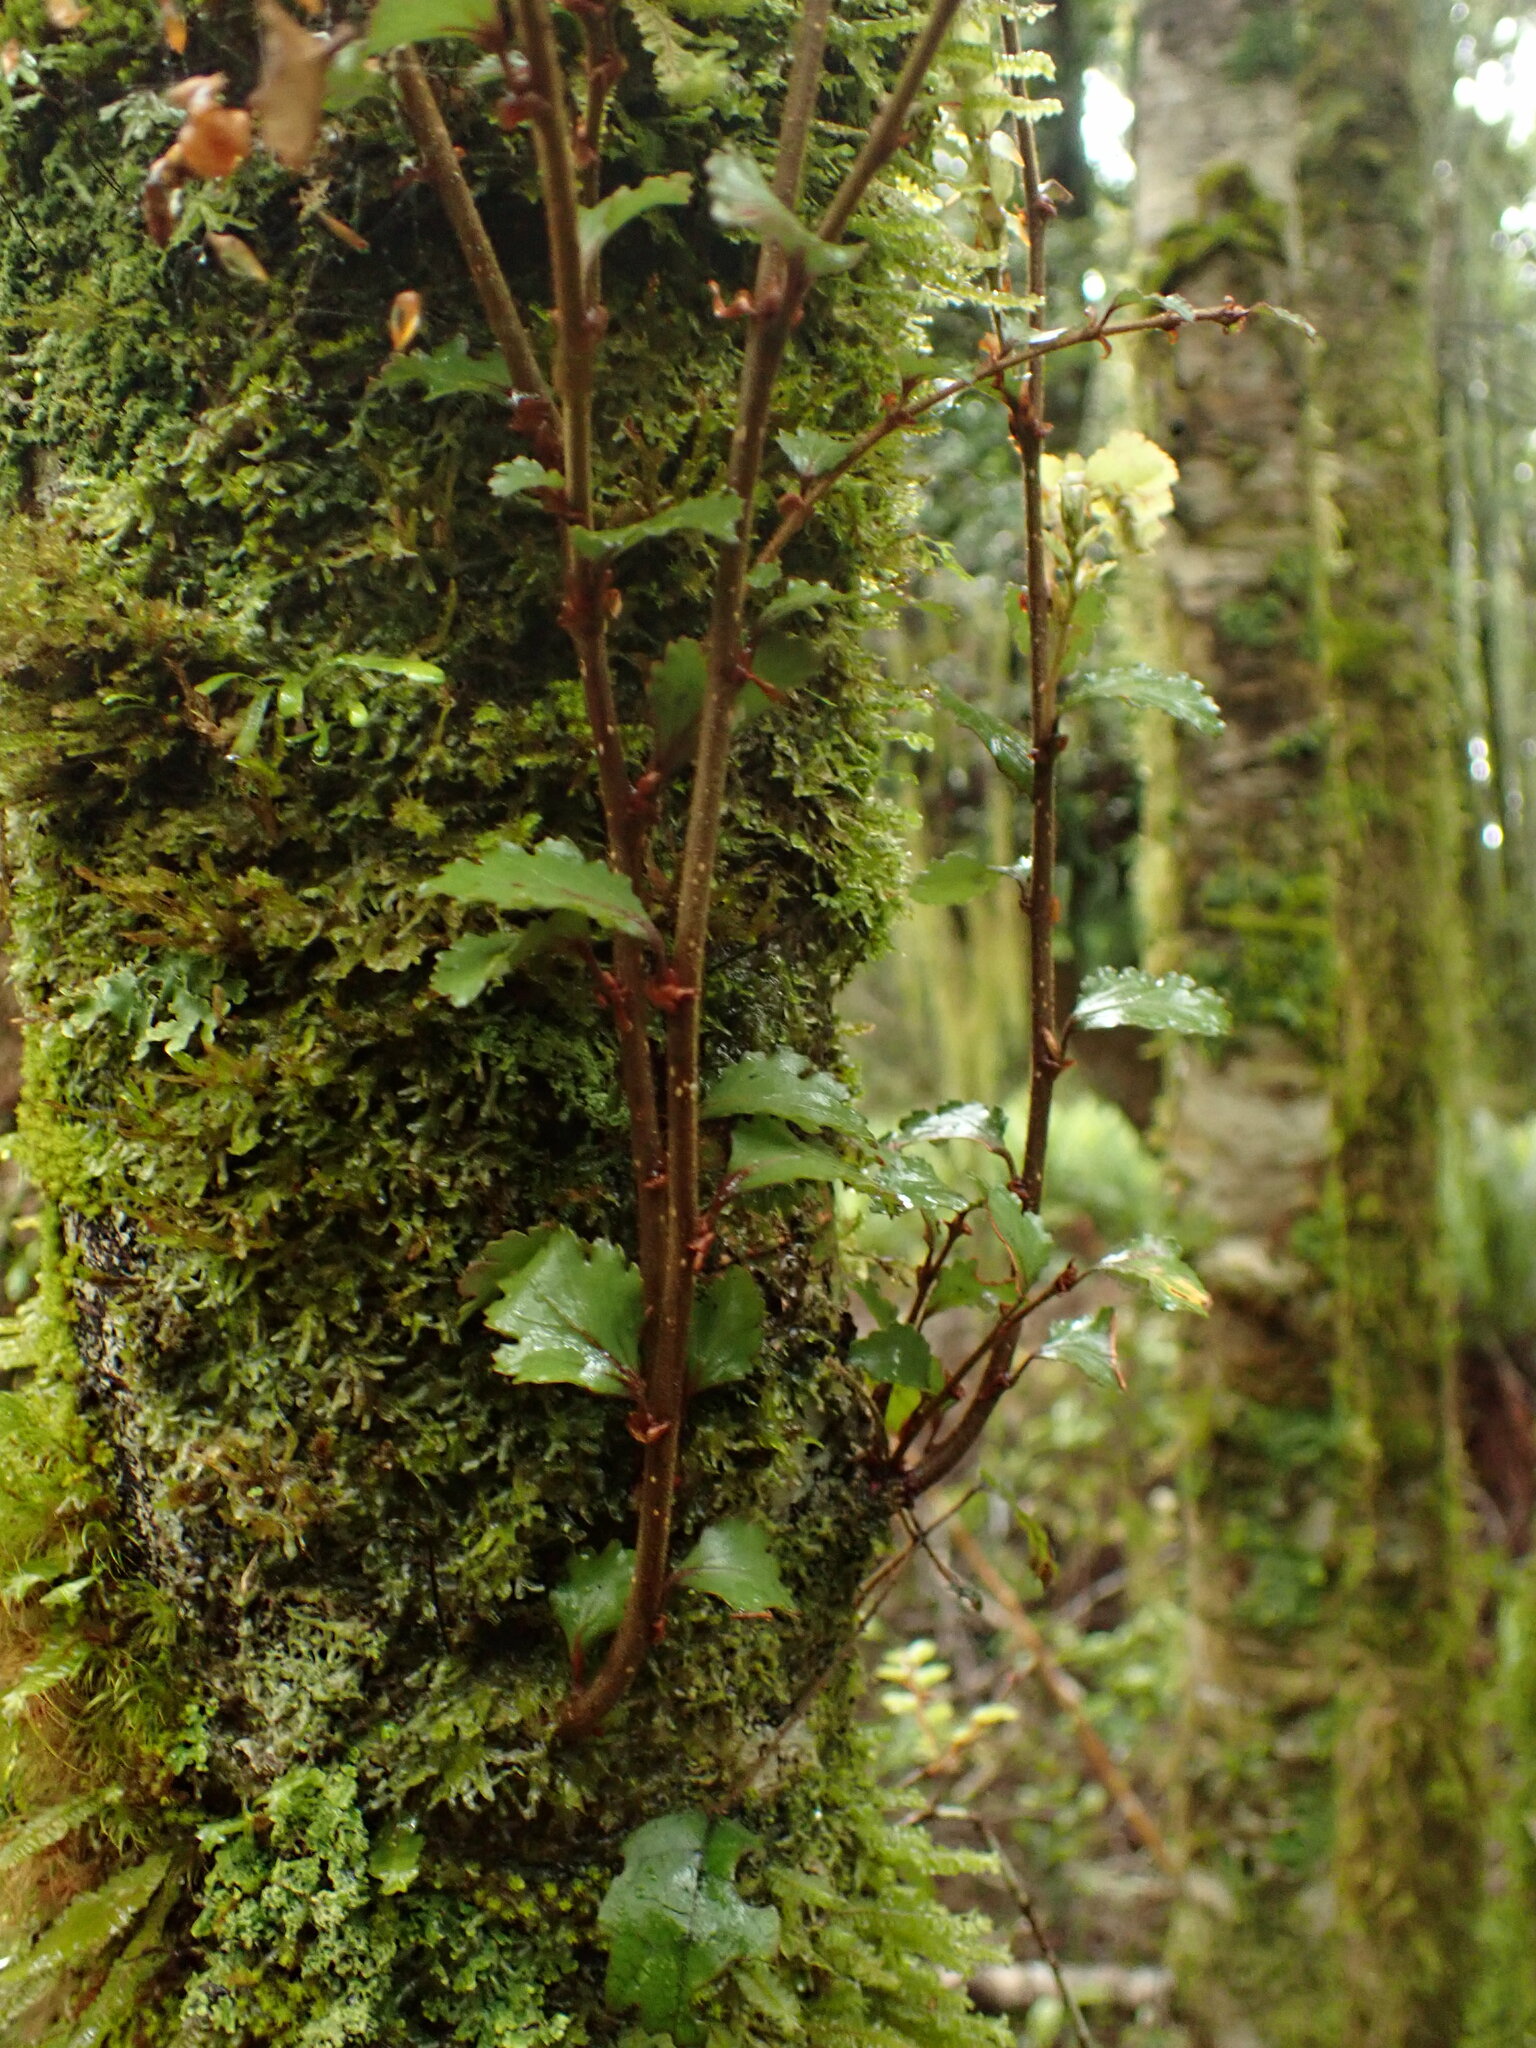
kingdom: Plantae
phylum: Tracheophyta
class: Magnoliopsida
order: Fagales
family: Nothofagaceae
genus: Nothofagus
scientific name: Nothofagus menziesii
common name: Silver beech
